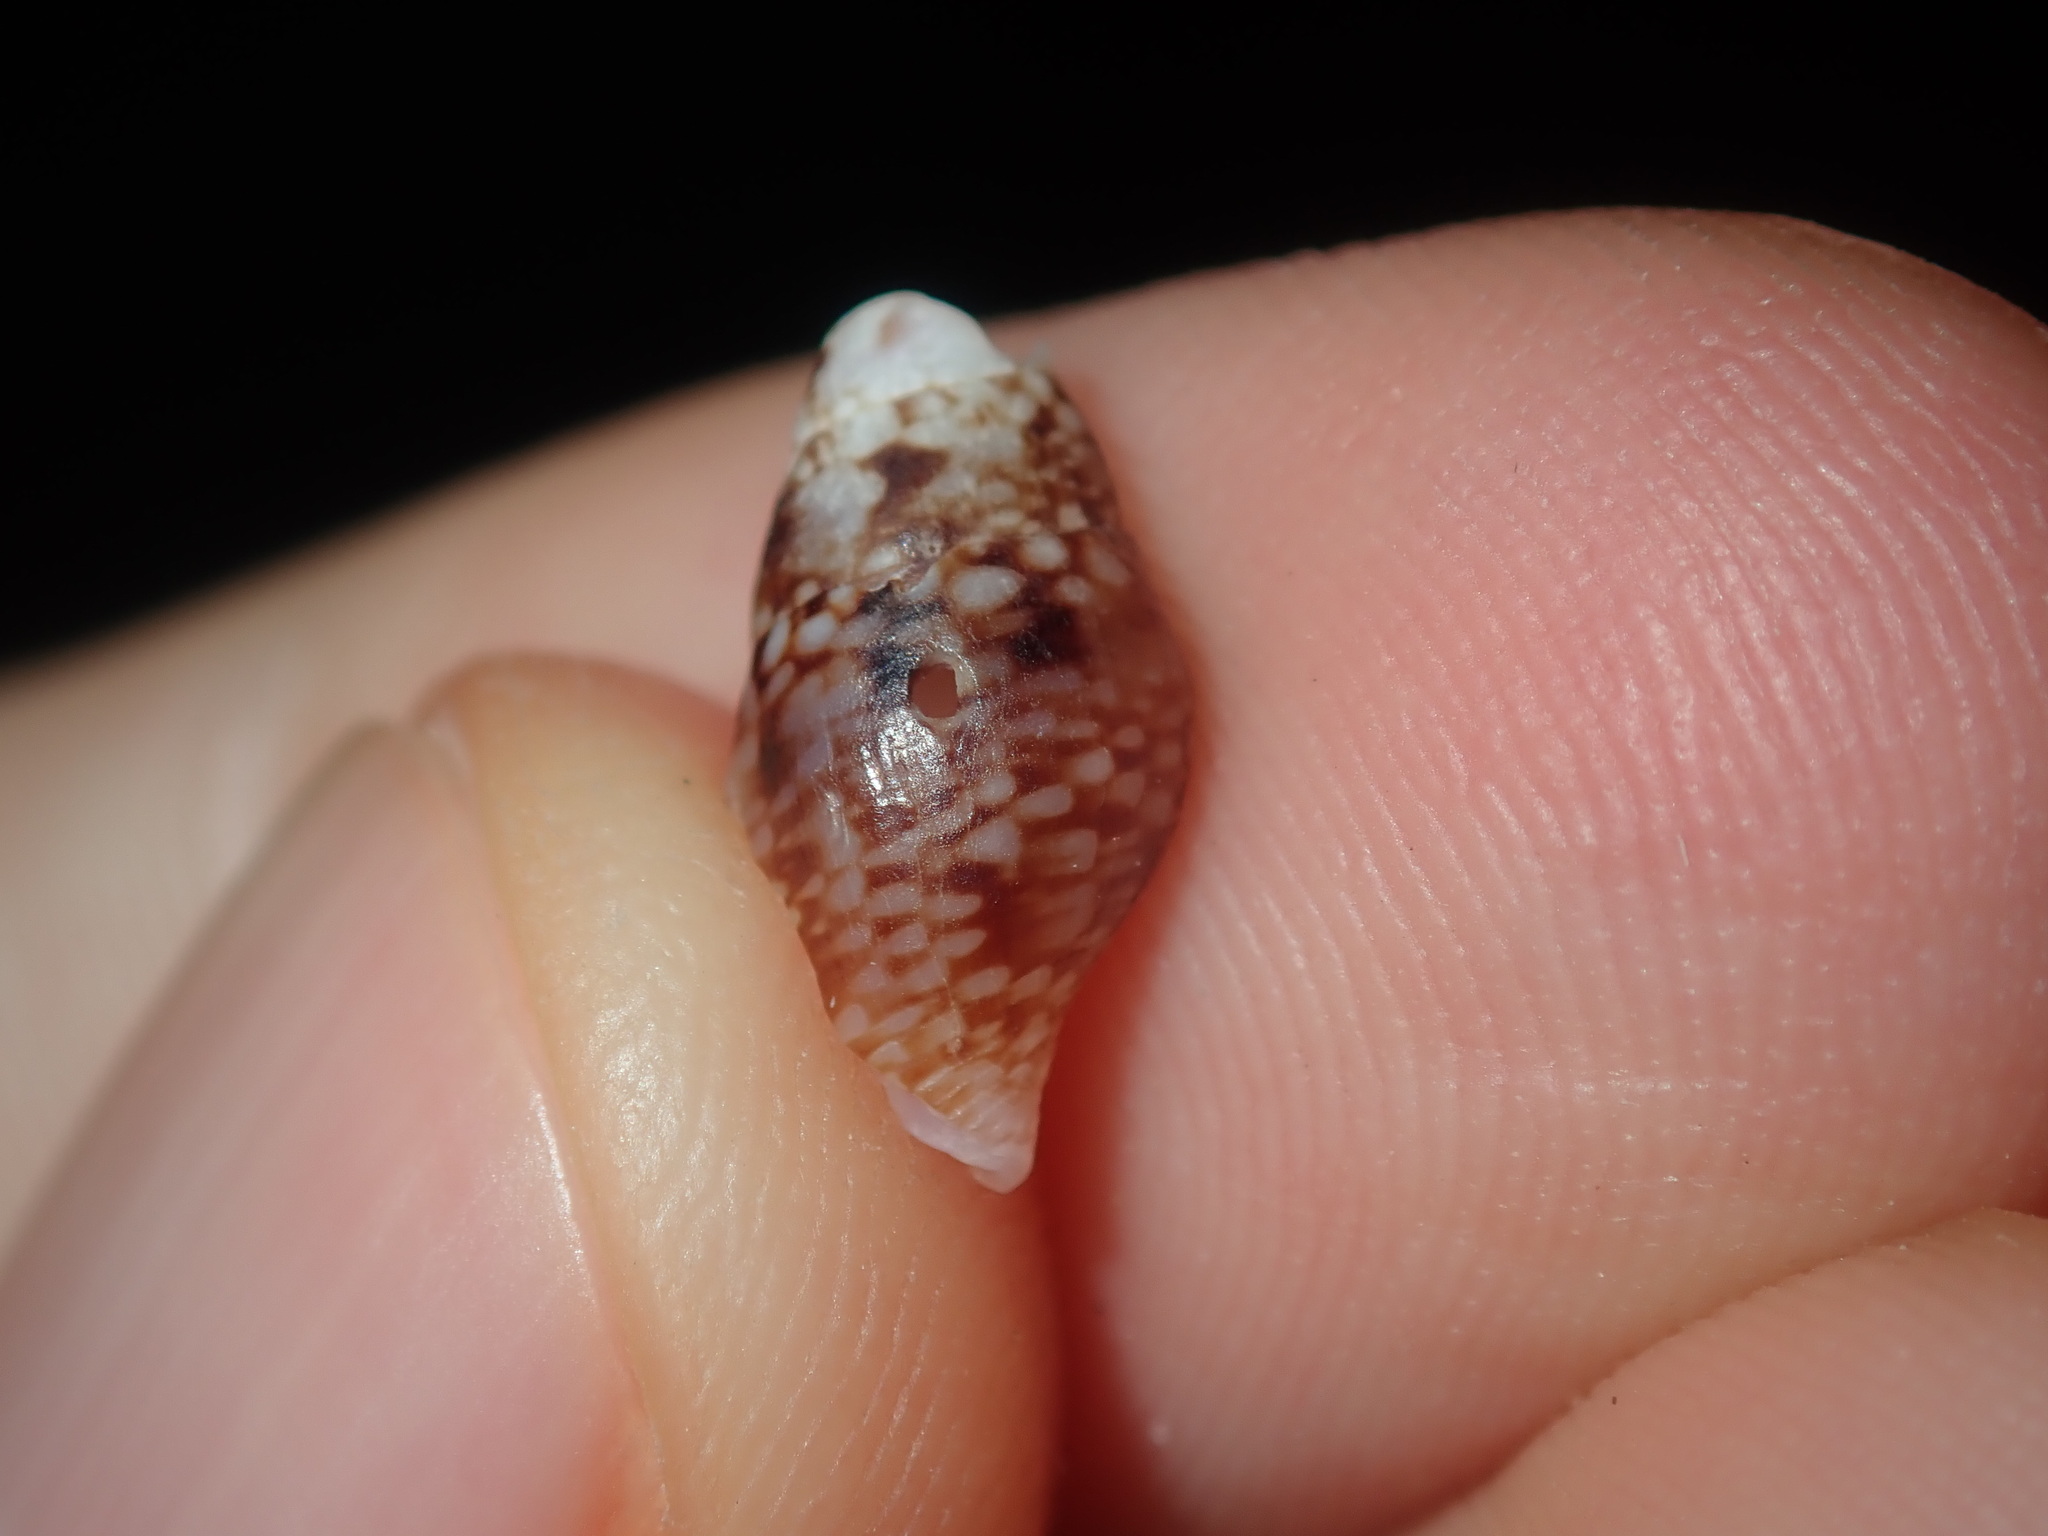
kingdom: Animalia
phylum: Mollusca
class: Gastropoda
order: Neogastropoda
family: Columbellidae
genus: Mitrella
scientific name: Mitrella semiconvexa
